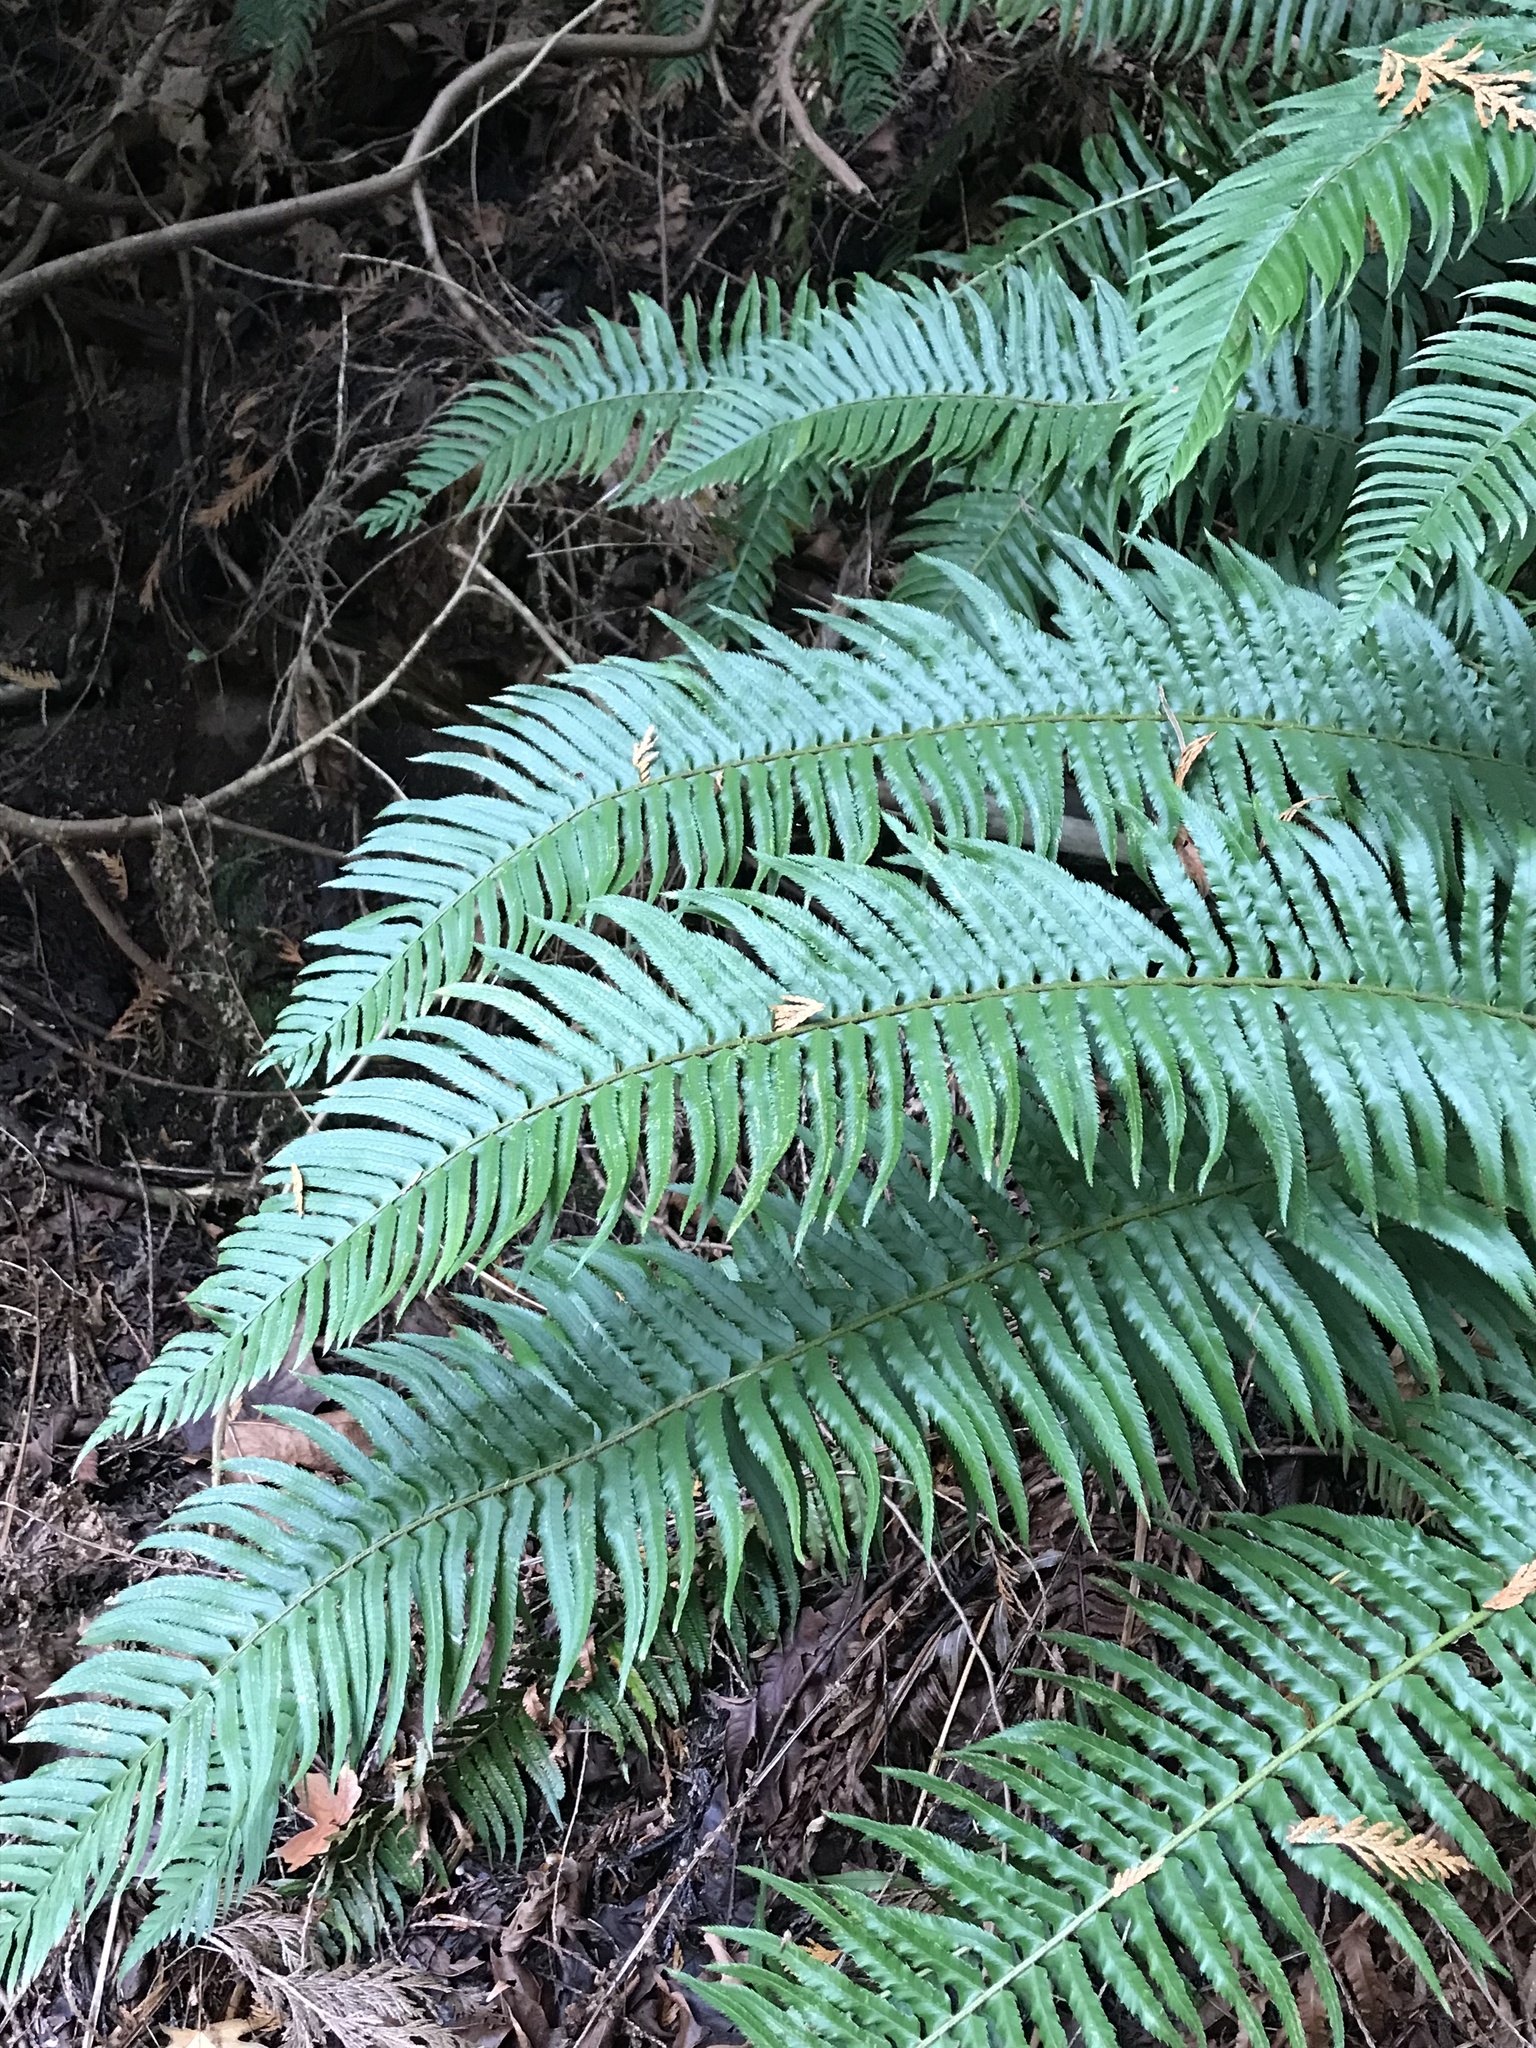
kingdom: Plantae
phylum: Tracheophyta
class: Polypodiopsida
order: Polypodiales
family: Dryopteridaceae
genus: Polystichum
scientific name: Polystichum munitum
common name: Western sword-fern
